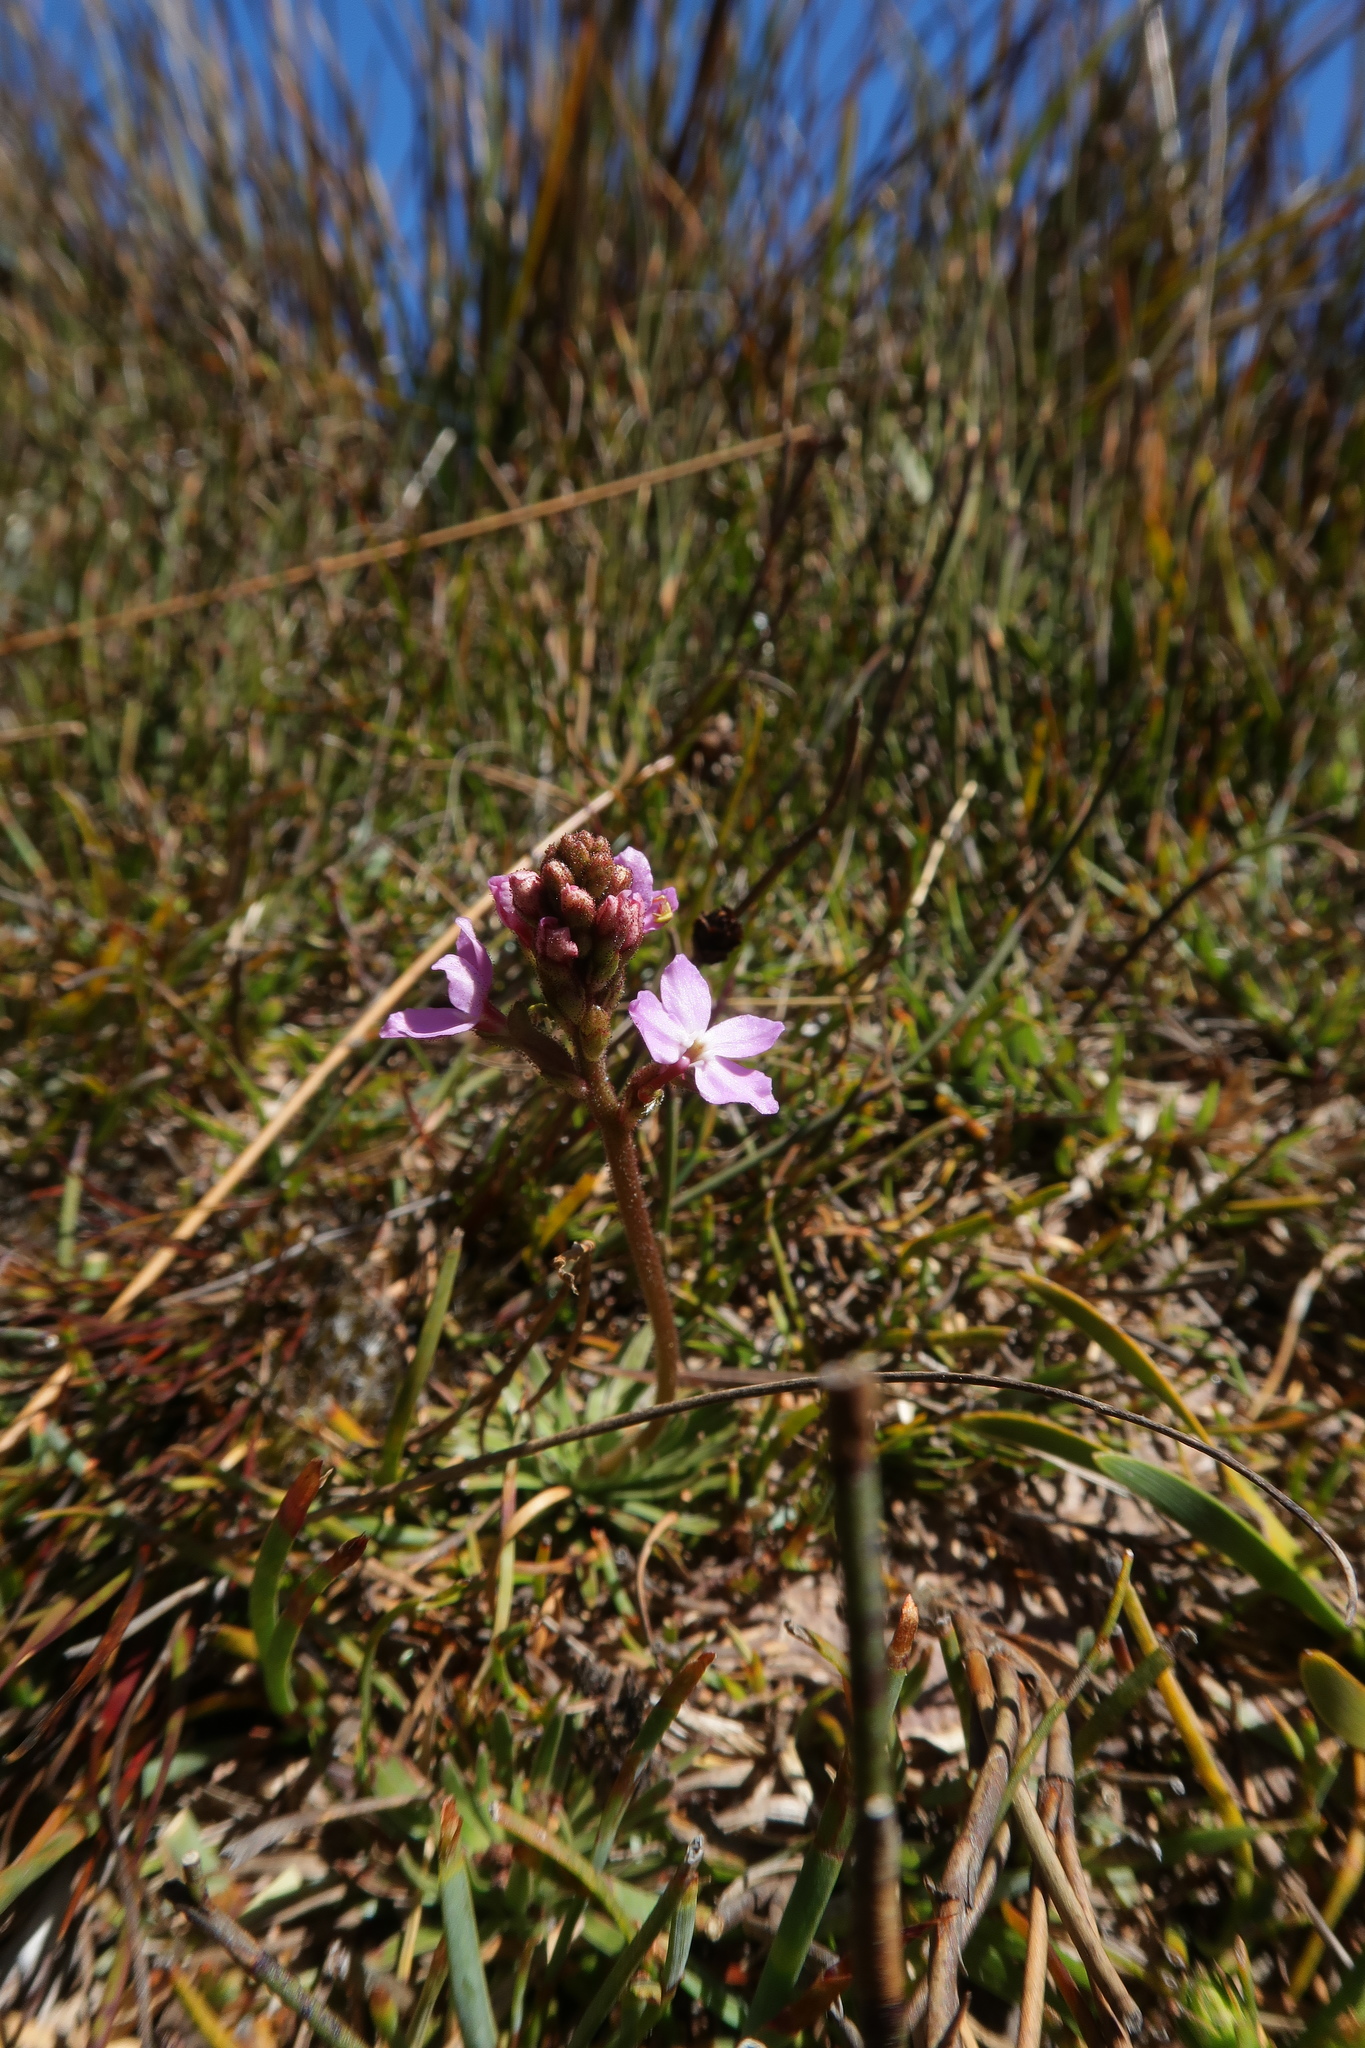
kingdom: Plantae
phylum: Tracheophyta
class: Magnoliopsida
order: Asterales
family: Stylidiaceae
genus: Stylidium
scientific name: Stylidium graminifolium
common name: Grass triggerplant
